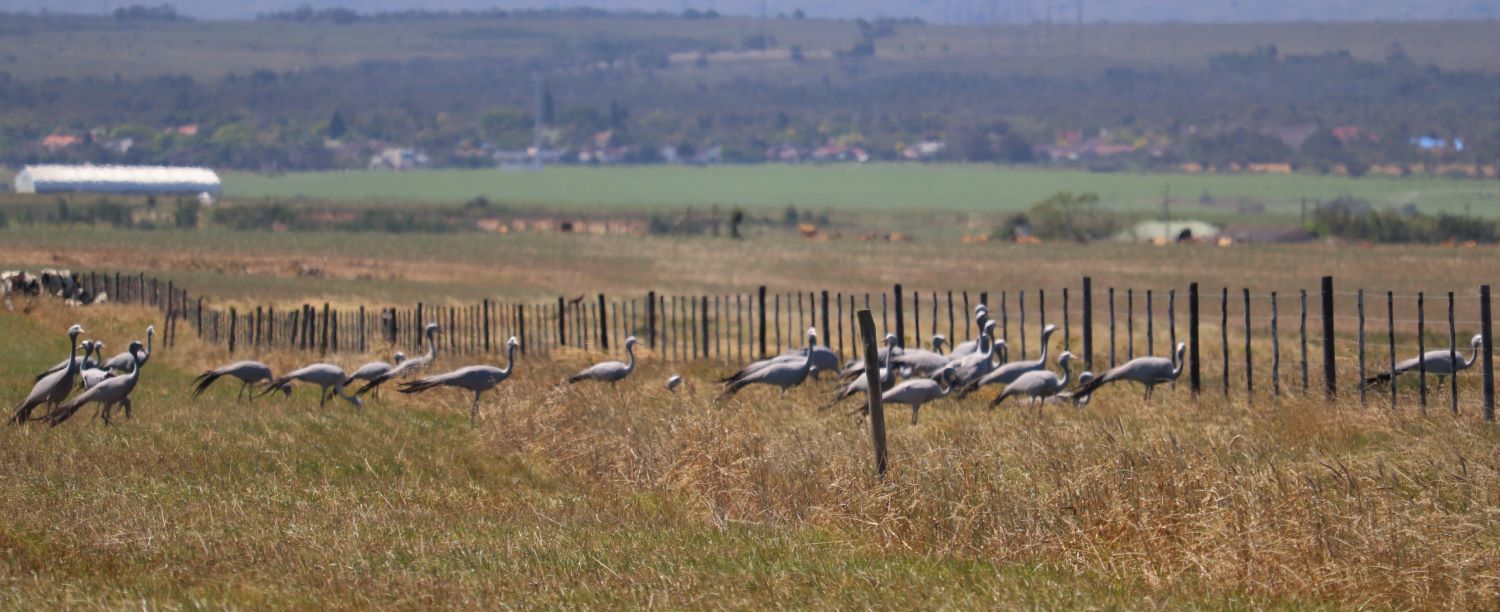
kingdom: Animalia
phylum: Chordata
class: Aves
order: Gruiformes
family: Gruidae
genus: Anthropoides
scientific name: Anthropoides paradiseus
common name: Blue crane
